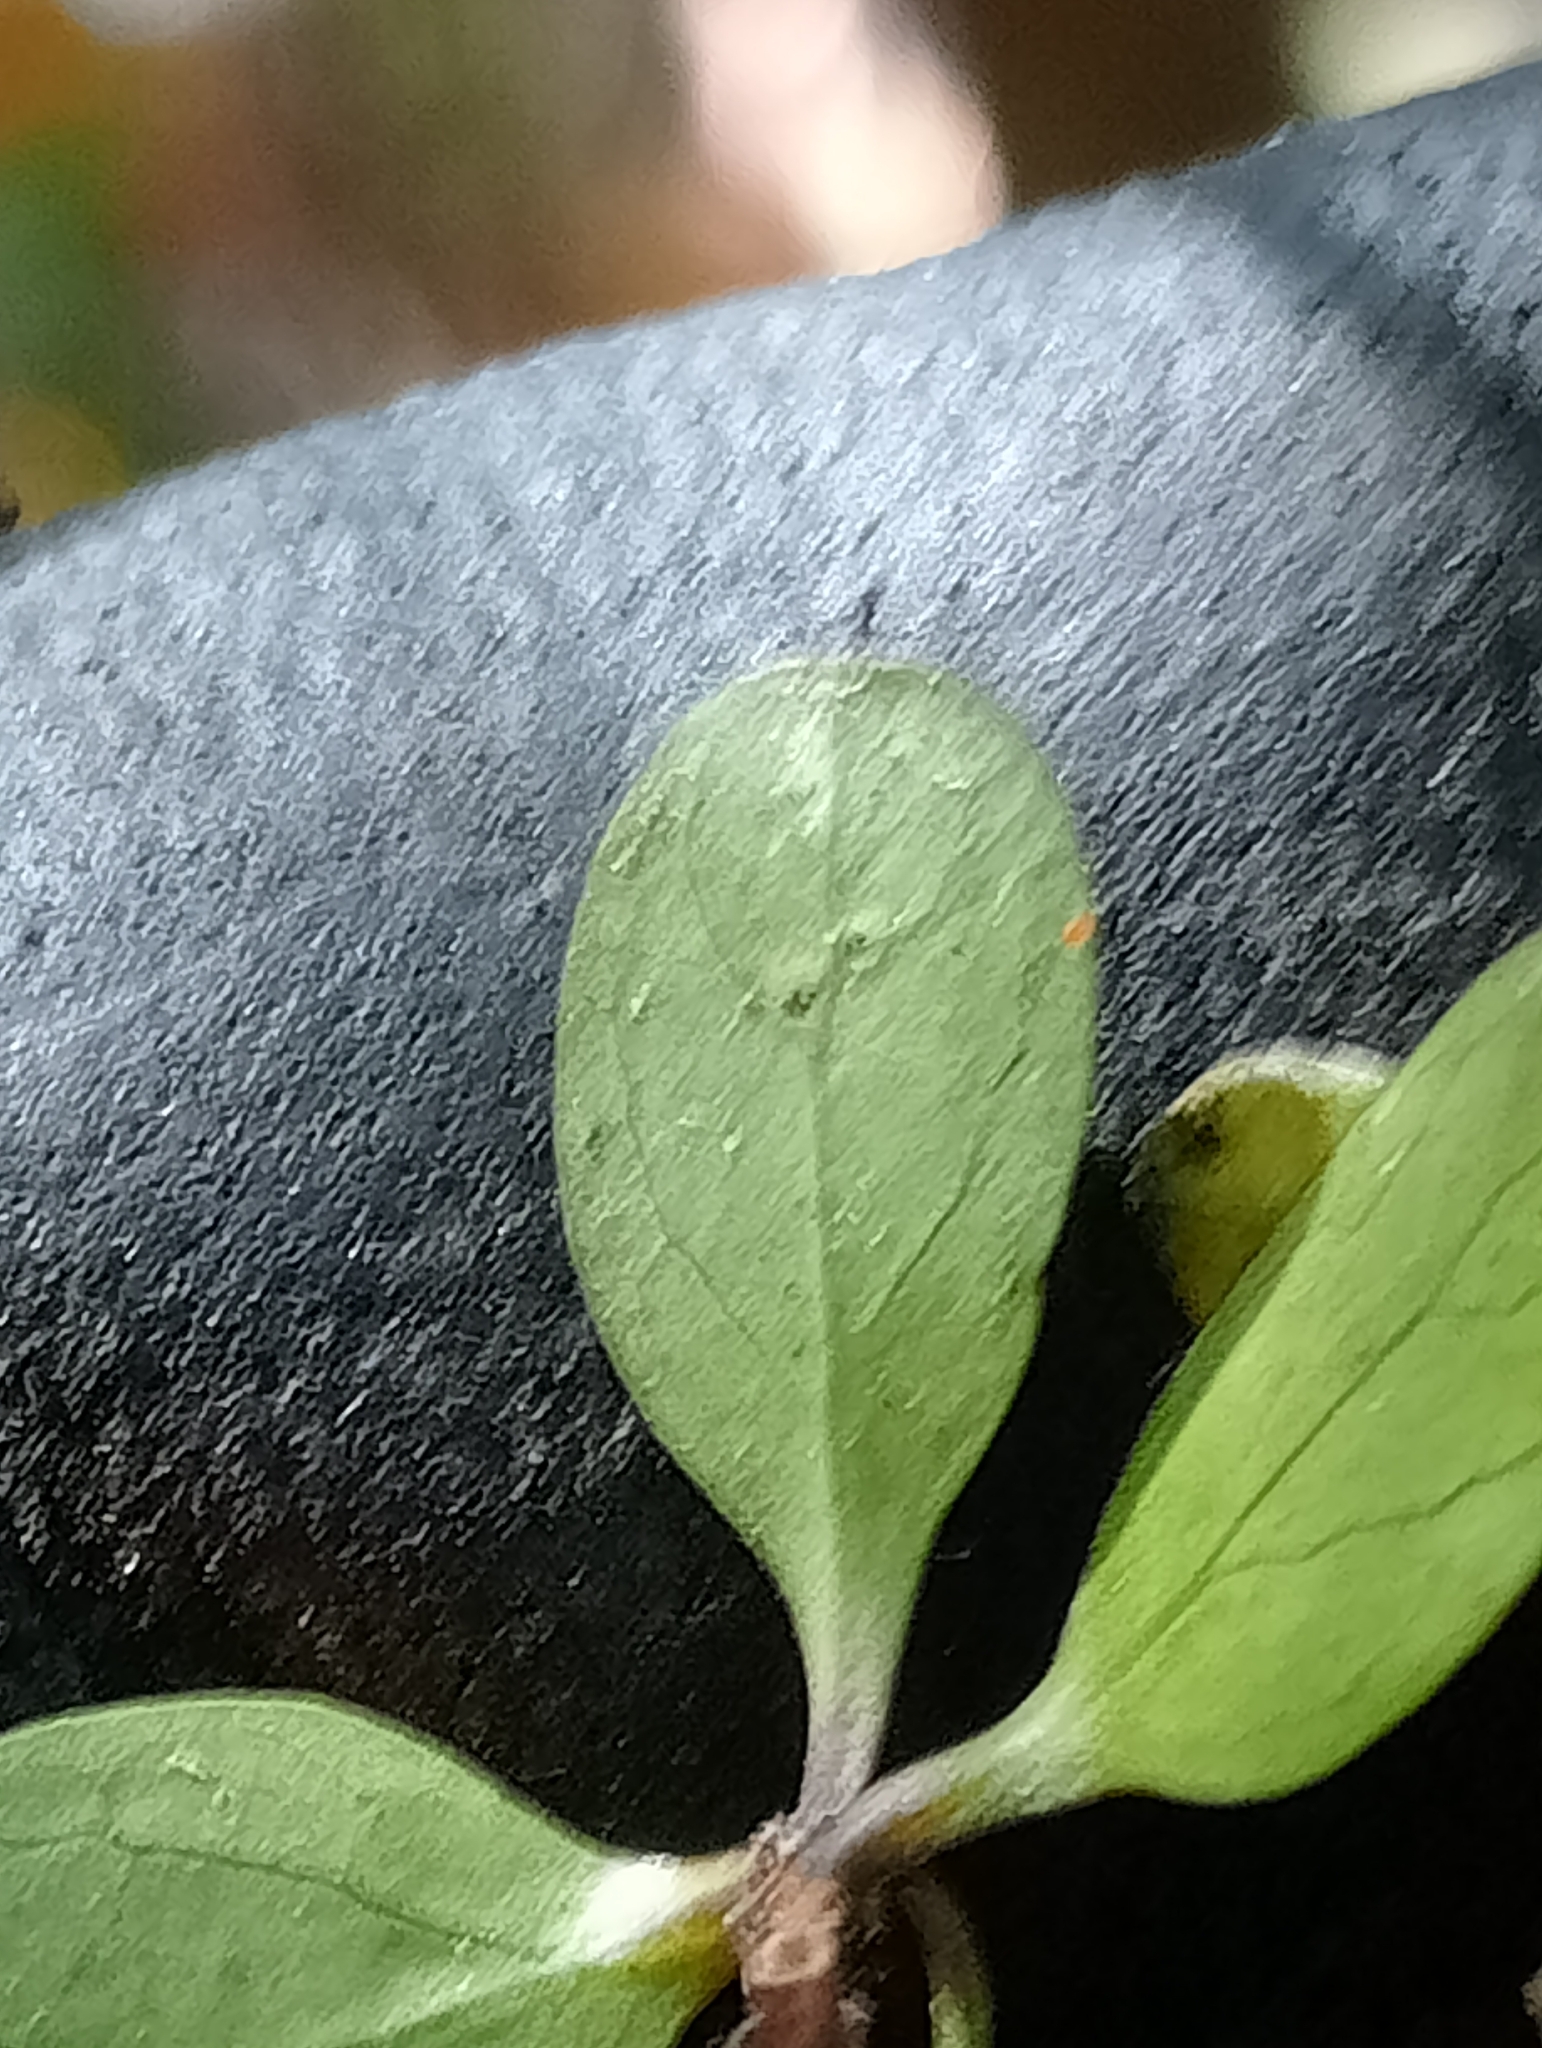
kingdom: Plantae
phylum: Tracheophyta
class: Magnoliopsida
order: Gentianales
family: Rubiaceae
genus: Coprosma
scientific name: Coprosma rigida
